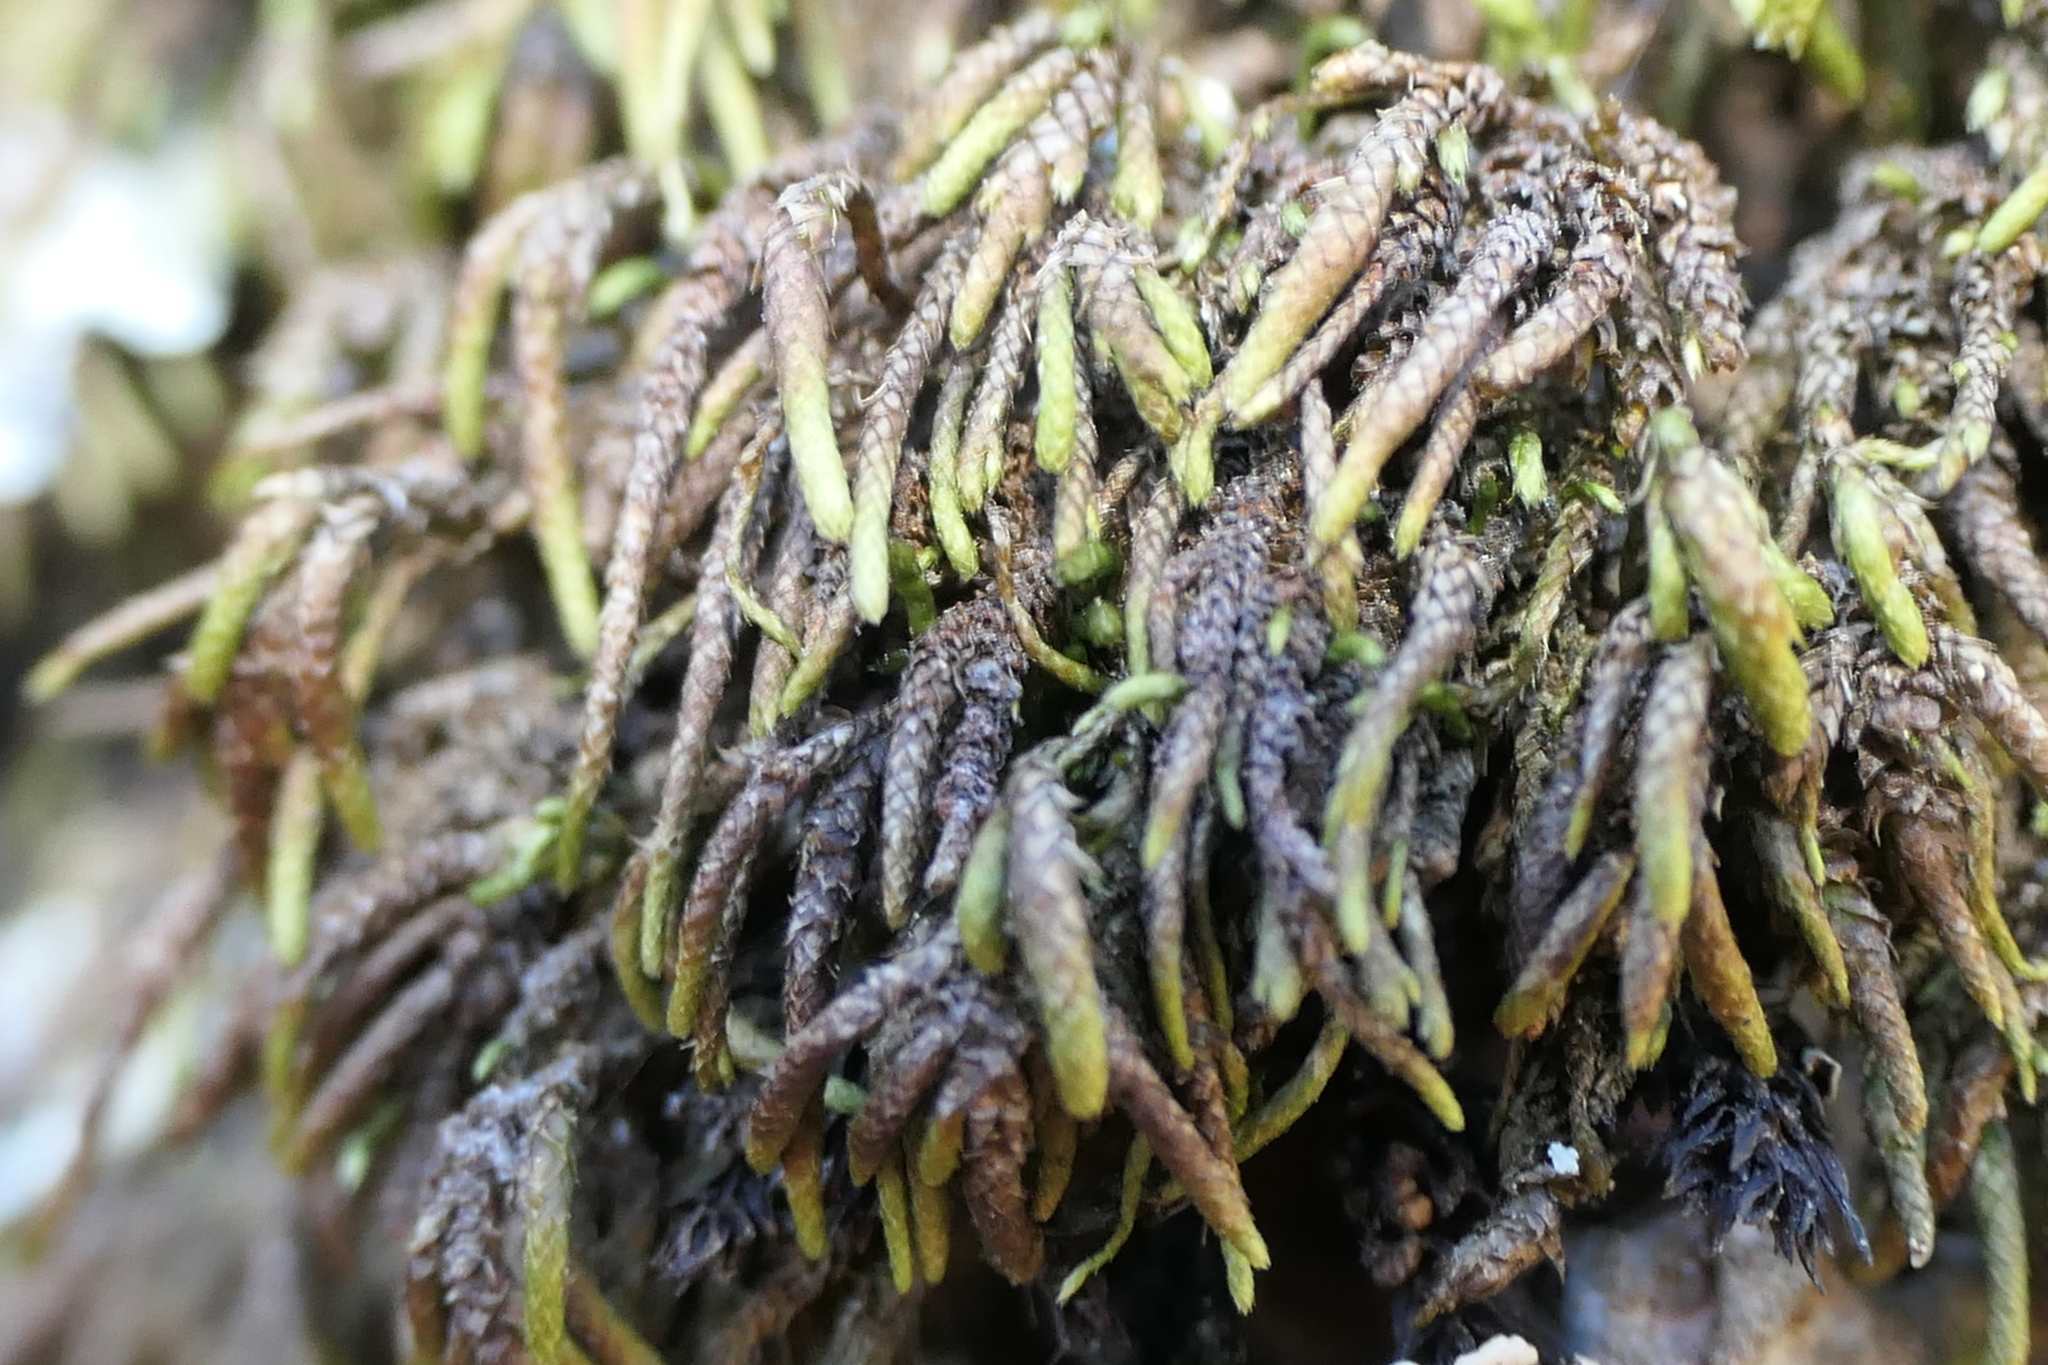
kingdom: Plantae
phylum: Bryophyta
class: Bryopsida
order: Hypnales
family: Lembophyllaceae
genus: Nogopterium
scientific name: Nogopterium gracile
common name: Bird's-foot wing-moss
